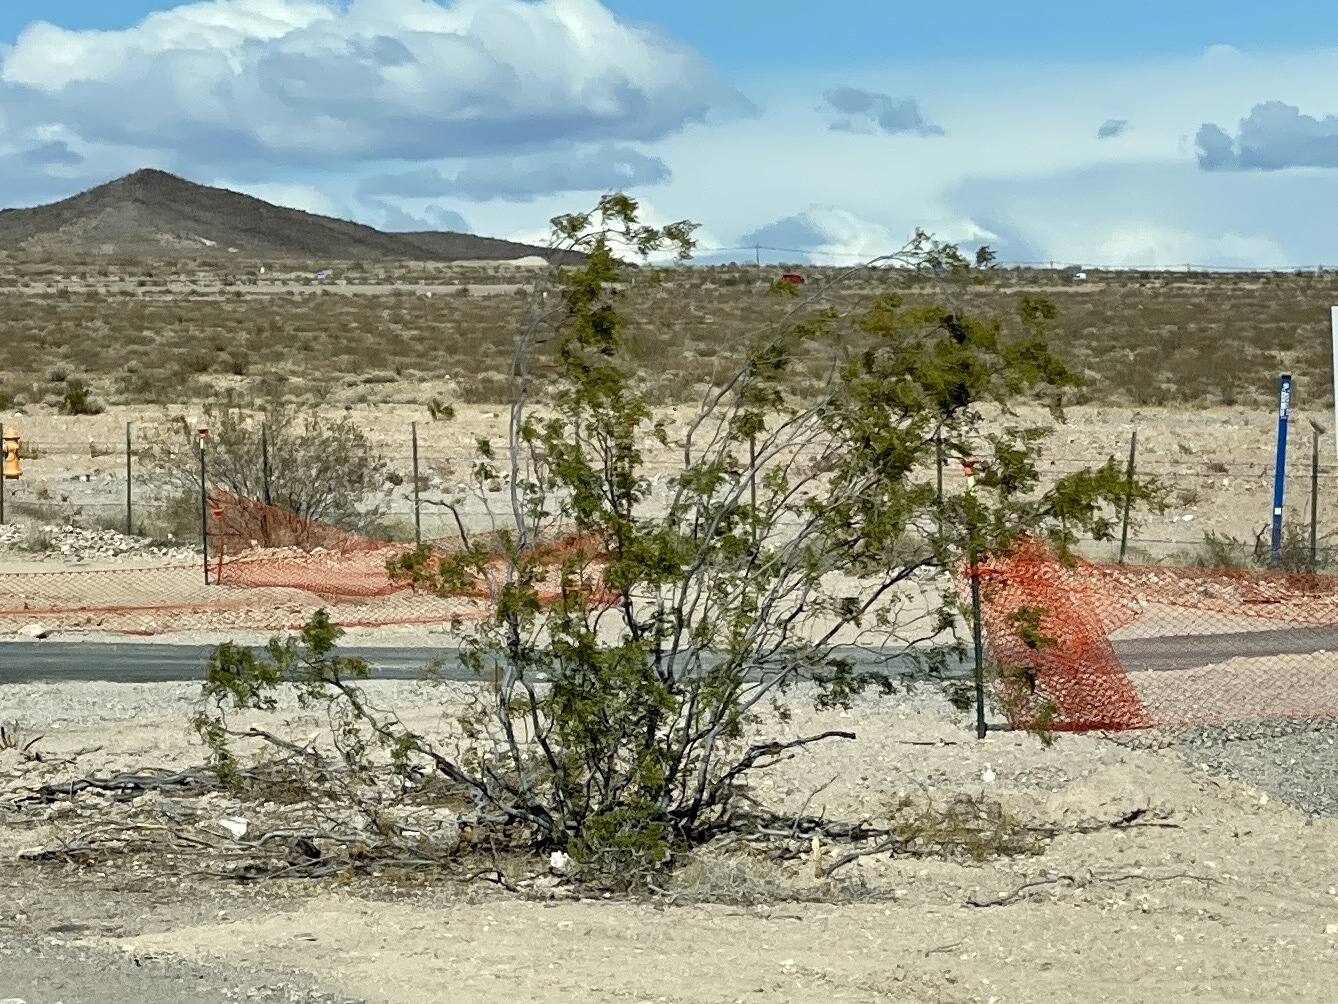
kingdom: Plantae
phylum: Tracheophyta
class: Magnoliopsida
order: Zygophyllales
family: Zygophyllaceae
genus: Larrea
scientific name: Larrea tridentata
